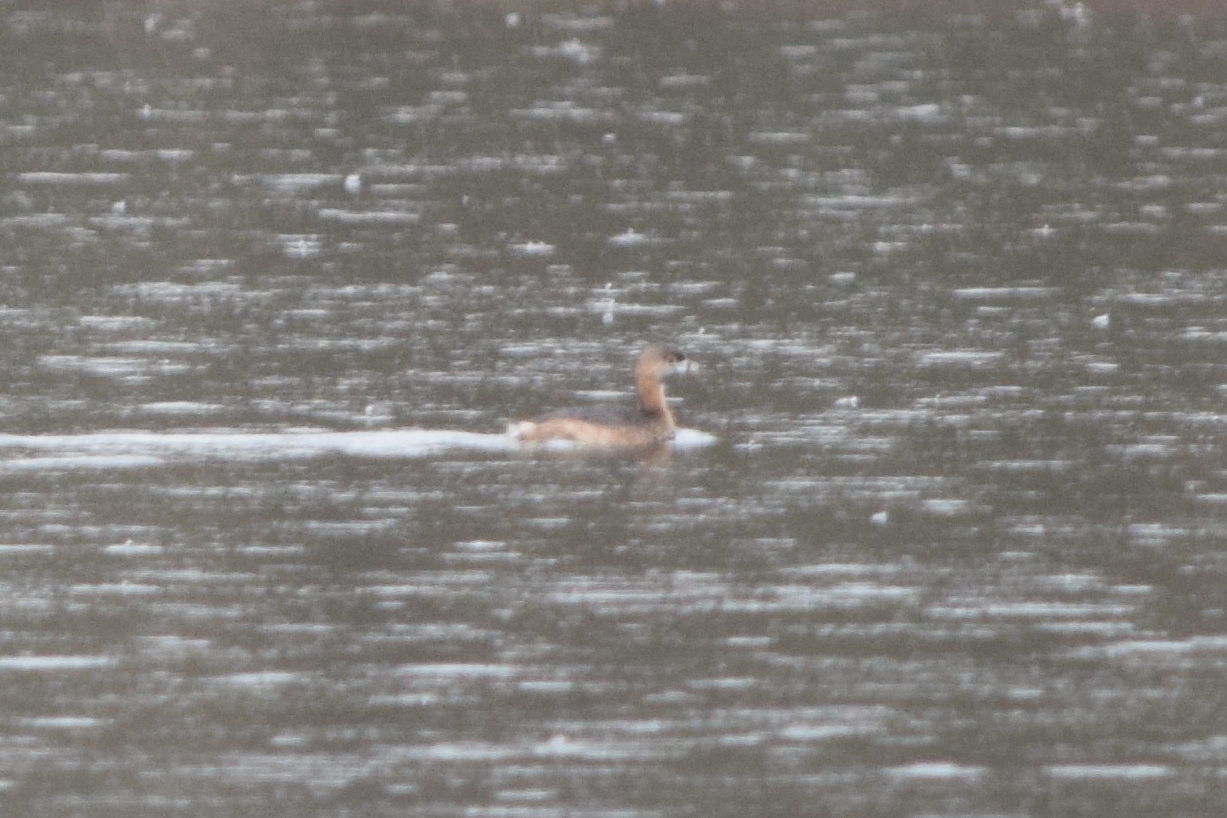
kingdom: Animalia
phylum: Chordata
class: Aves
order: Podicipediformes
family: Podicipedidae
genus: Podilymbus
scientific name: Podilymbus podiceps
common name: Pied-billed grebe
